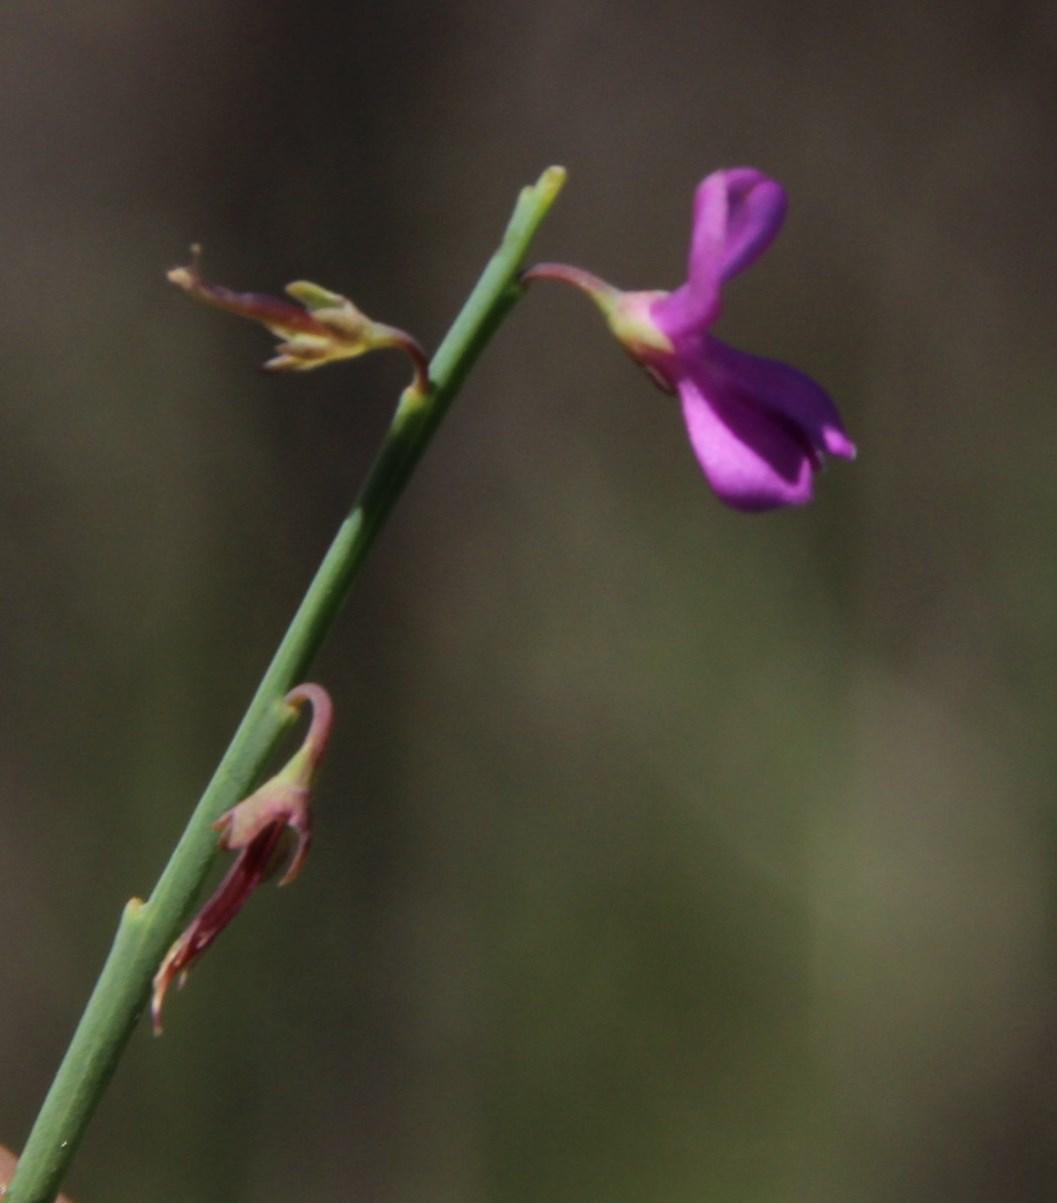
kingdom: Plantae
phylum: Tracheophyta
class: Magnoliopsida
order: Fabales
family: Fabaceae
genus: Indigofera
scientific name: Indigofera ionii
